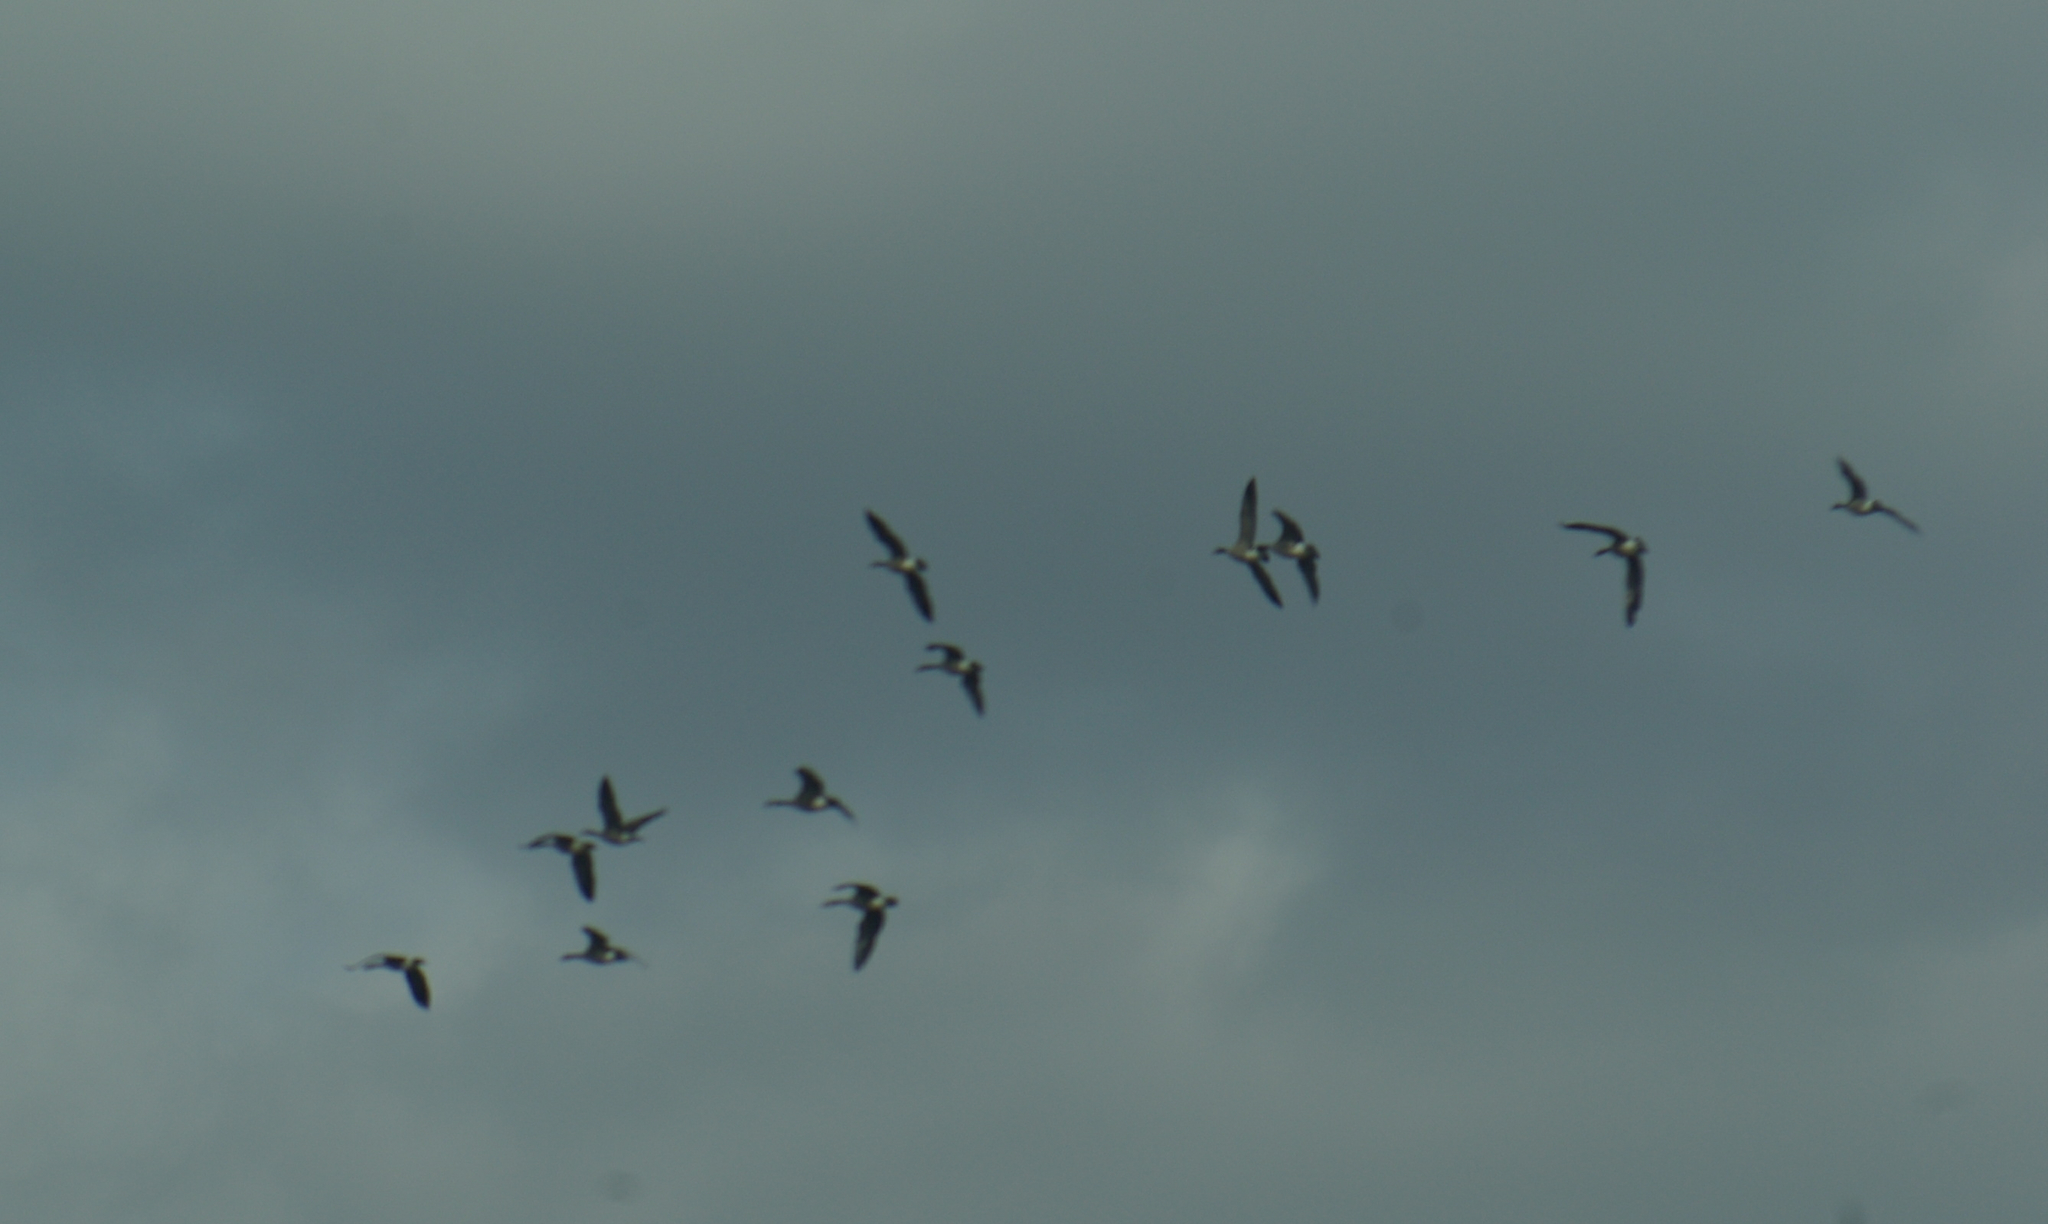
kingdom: Animalia
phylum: Chordata
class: Aves
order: Anseriformes
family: Anatidae
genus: Branta
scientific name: Branta canadensis
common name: Canada goose
